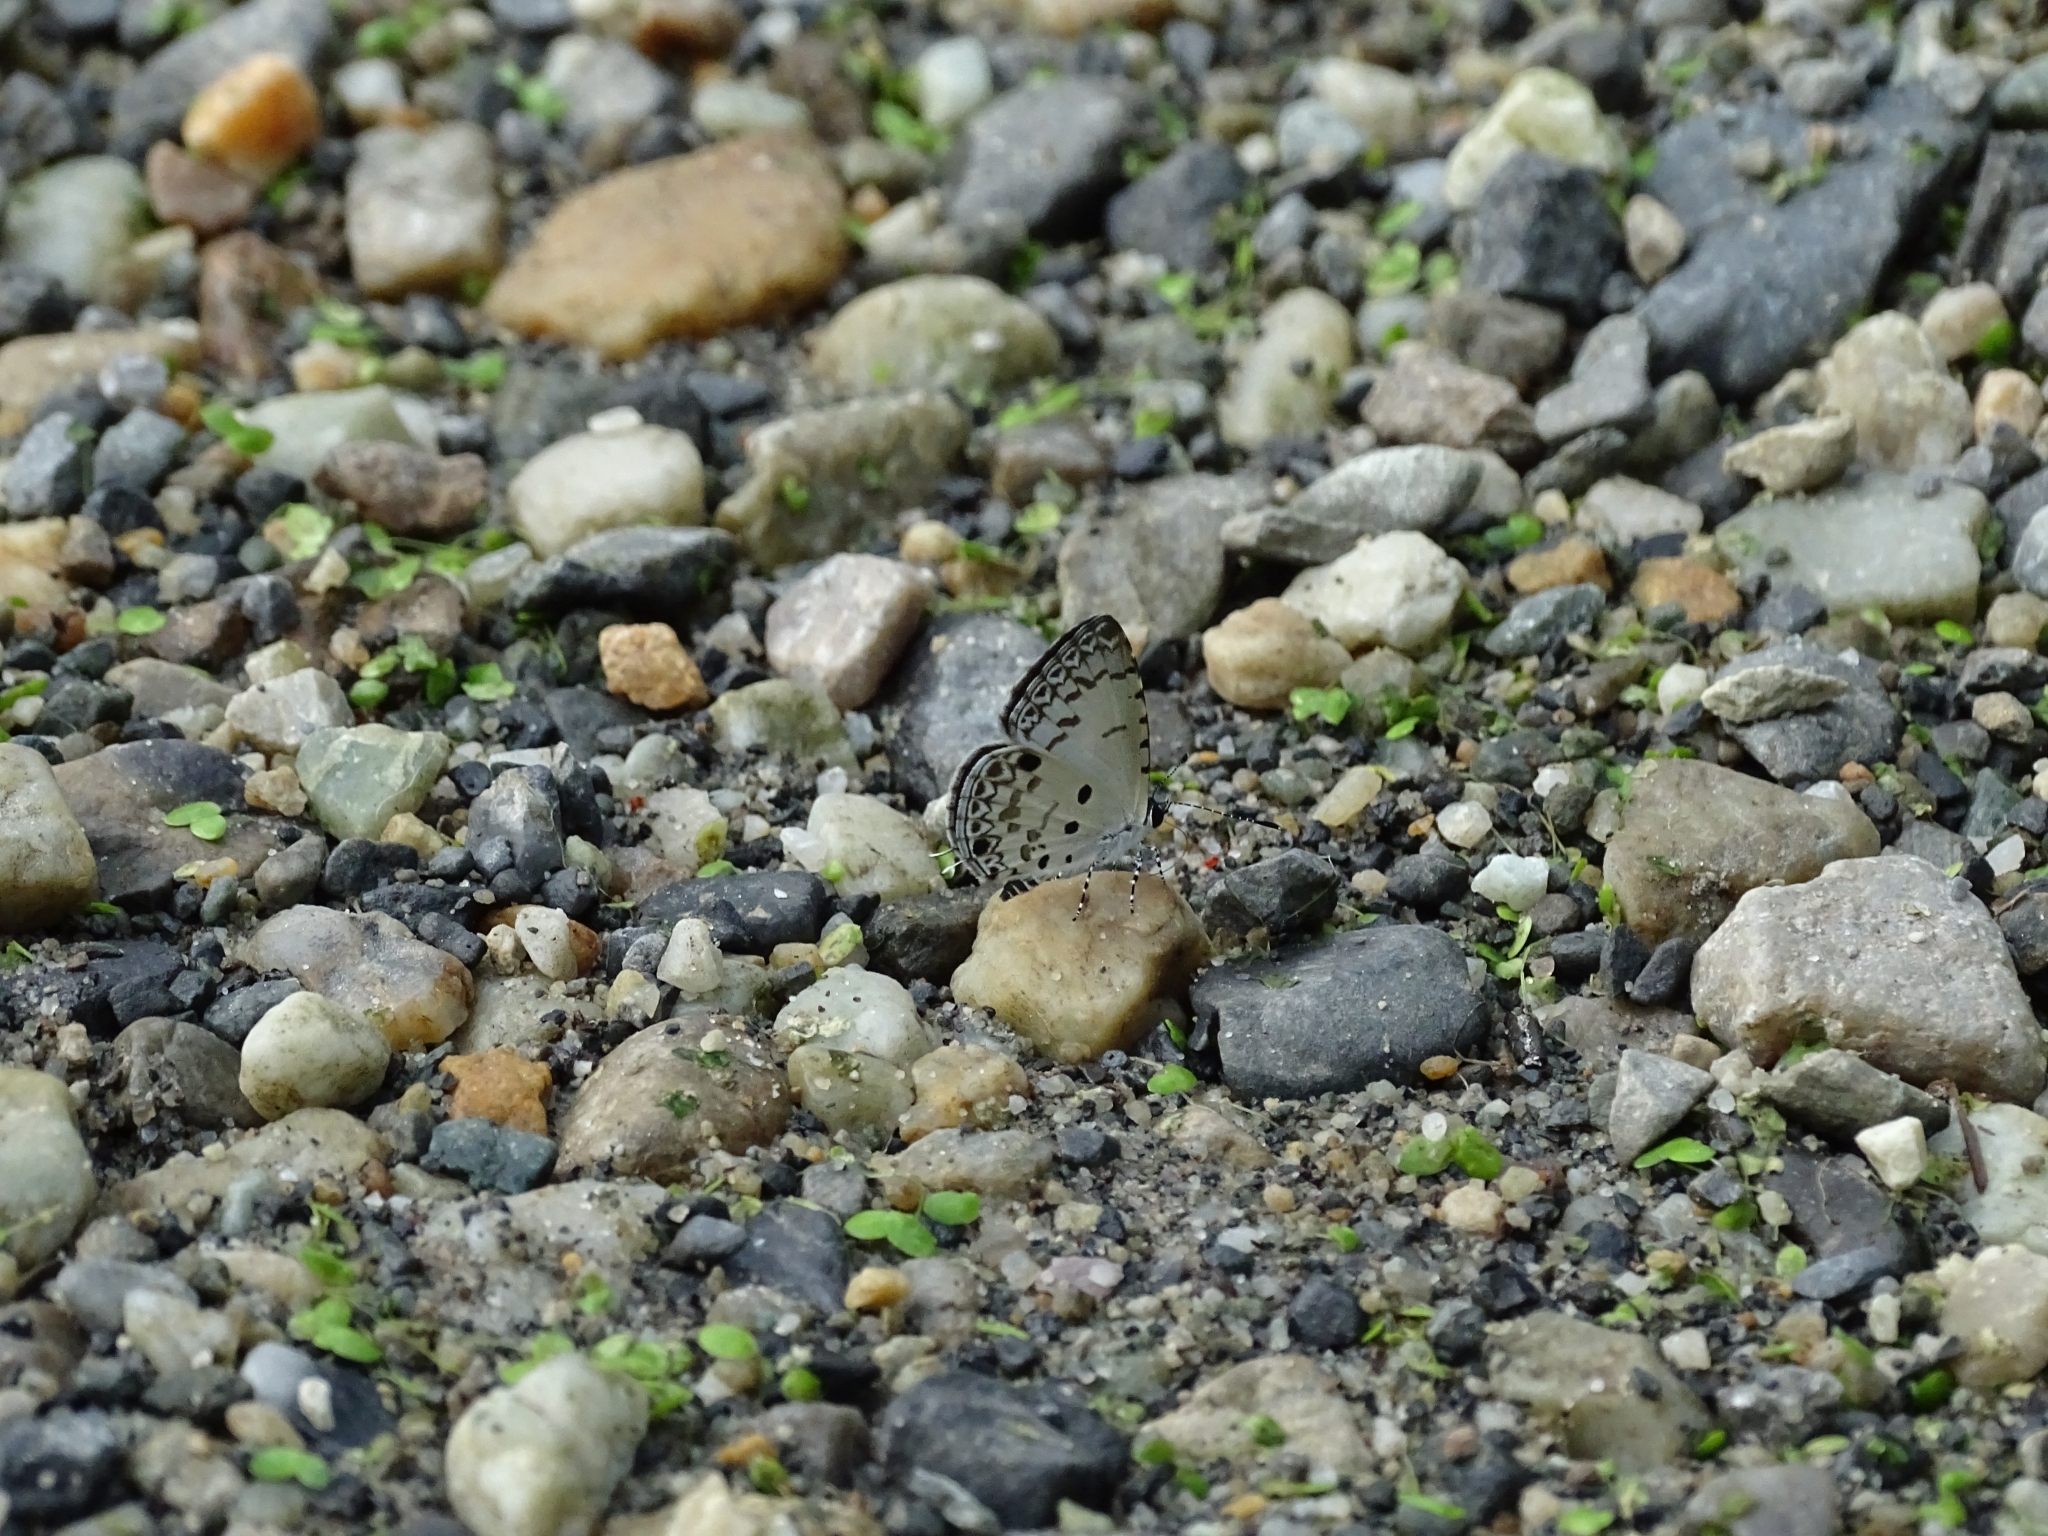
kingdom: Animalia
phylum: Arthropoda
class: Insecta
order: Lepidoptera
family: Lycaenidae
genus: Megisba
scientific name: Megisba malaya
